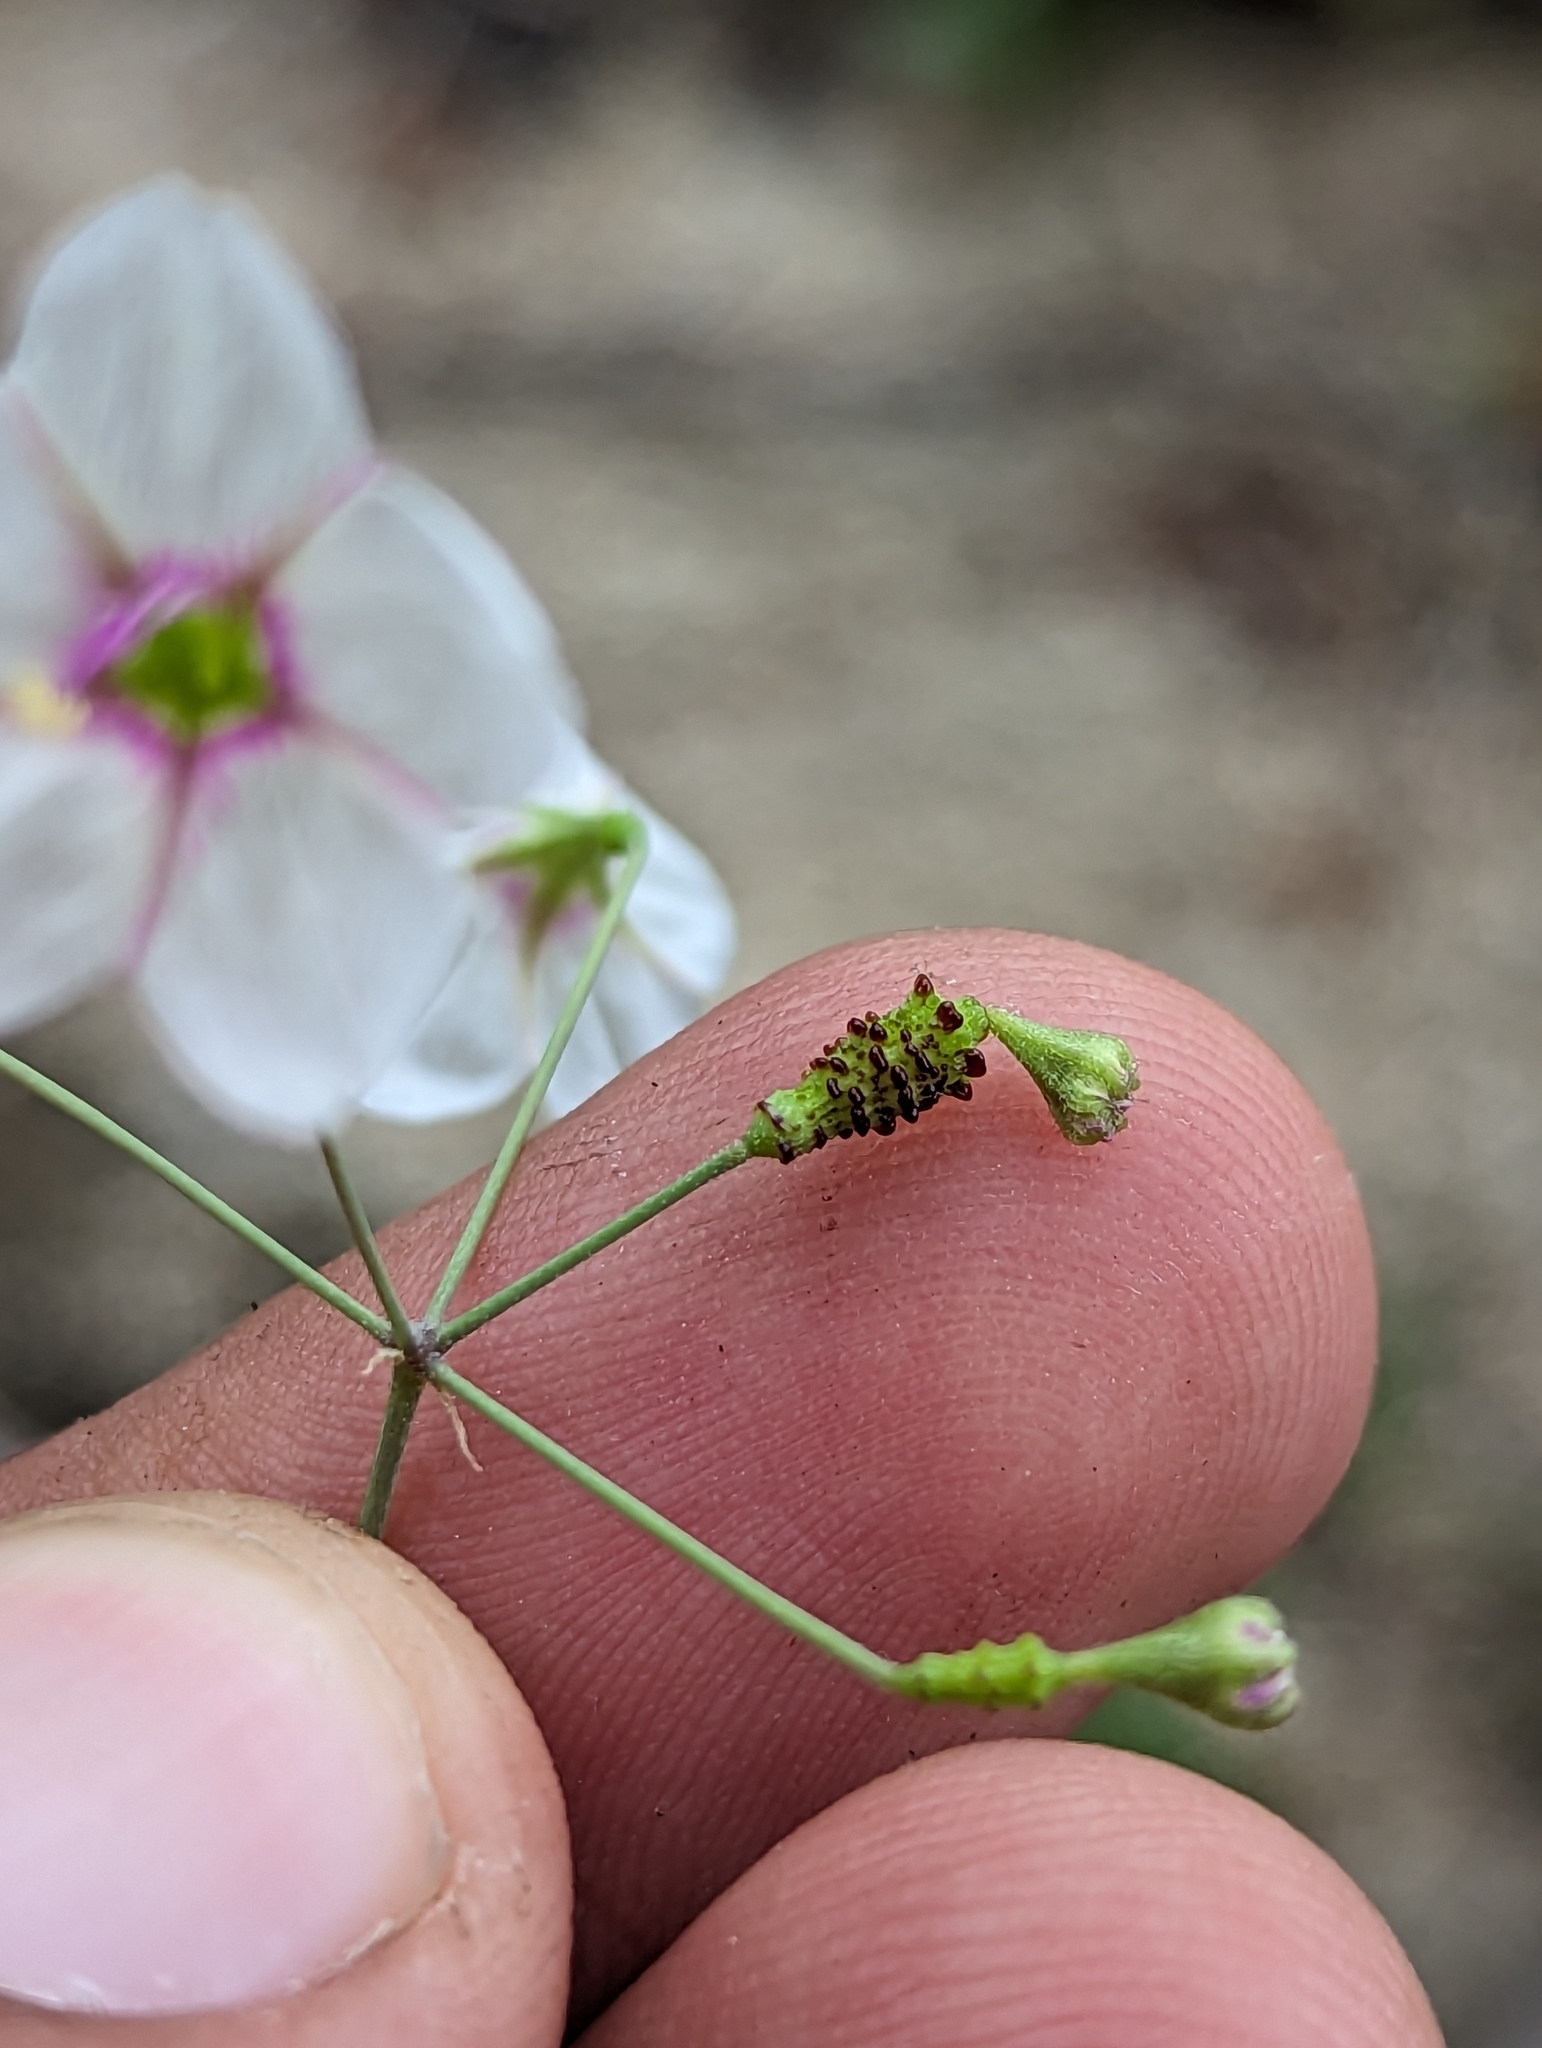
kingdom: Plantae
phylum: Tracheophyta
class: Magnoliopsida
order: Caryophyllales
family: Nyctaginaceae
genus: Commicarpus
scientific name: Commicarpus brandegeei
